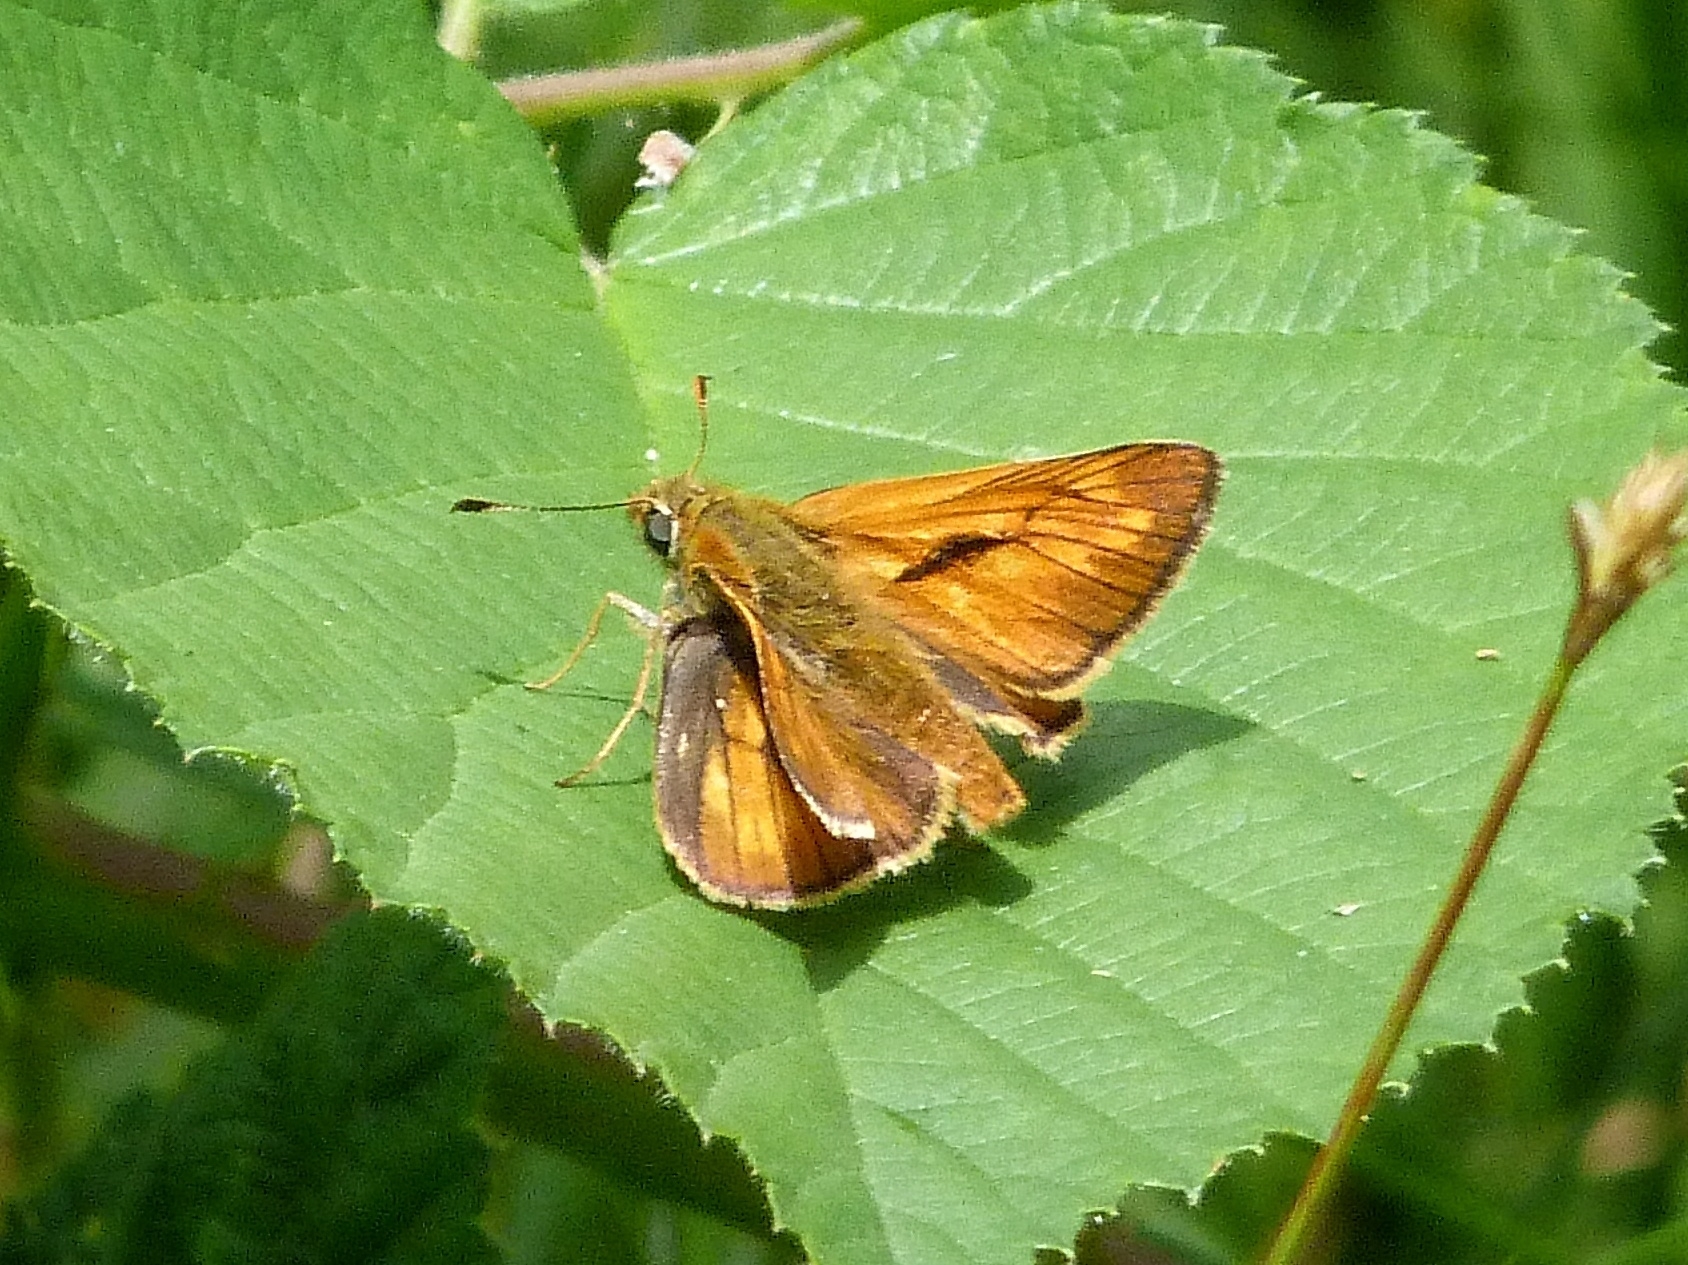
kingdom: Animalia
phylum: Arthropoda
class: Insecta
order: Lepidoptera
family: Hesperiidae
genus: Ochlodes
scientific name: Ochlodes venata
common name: Large skipper
